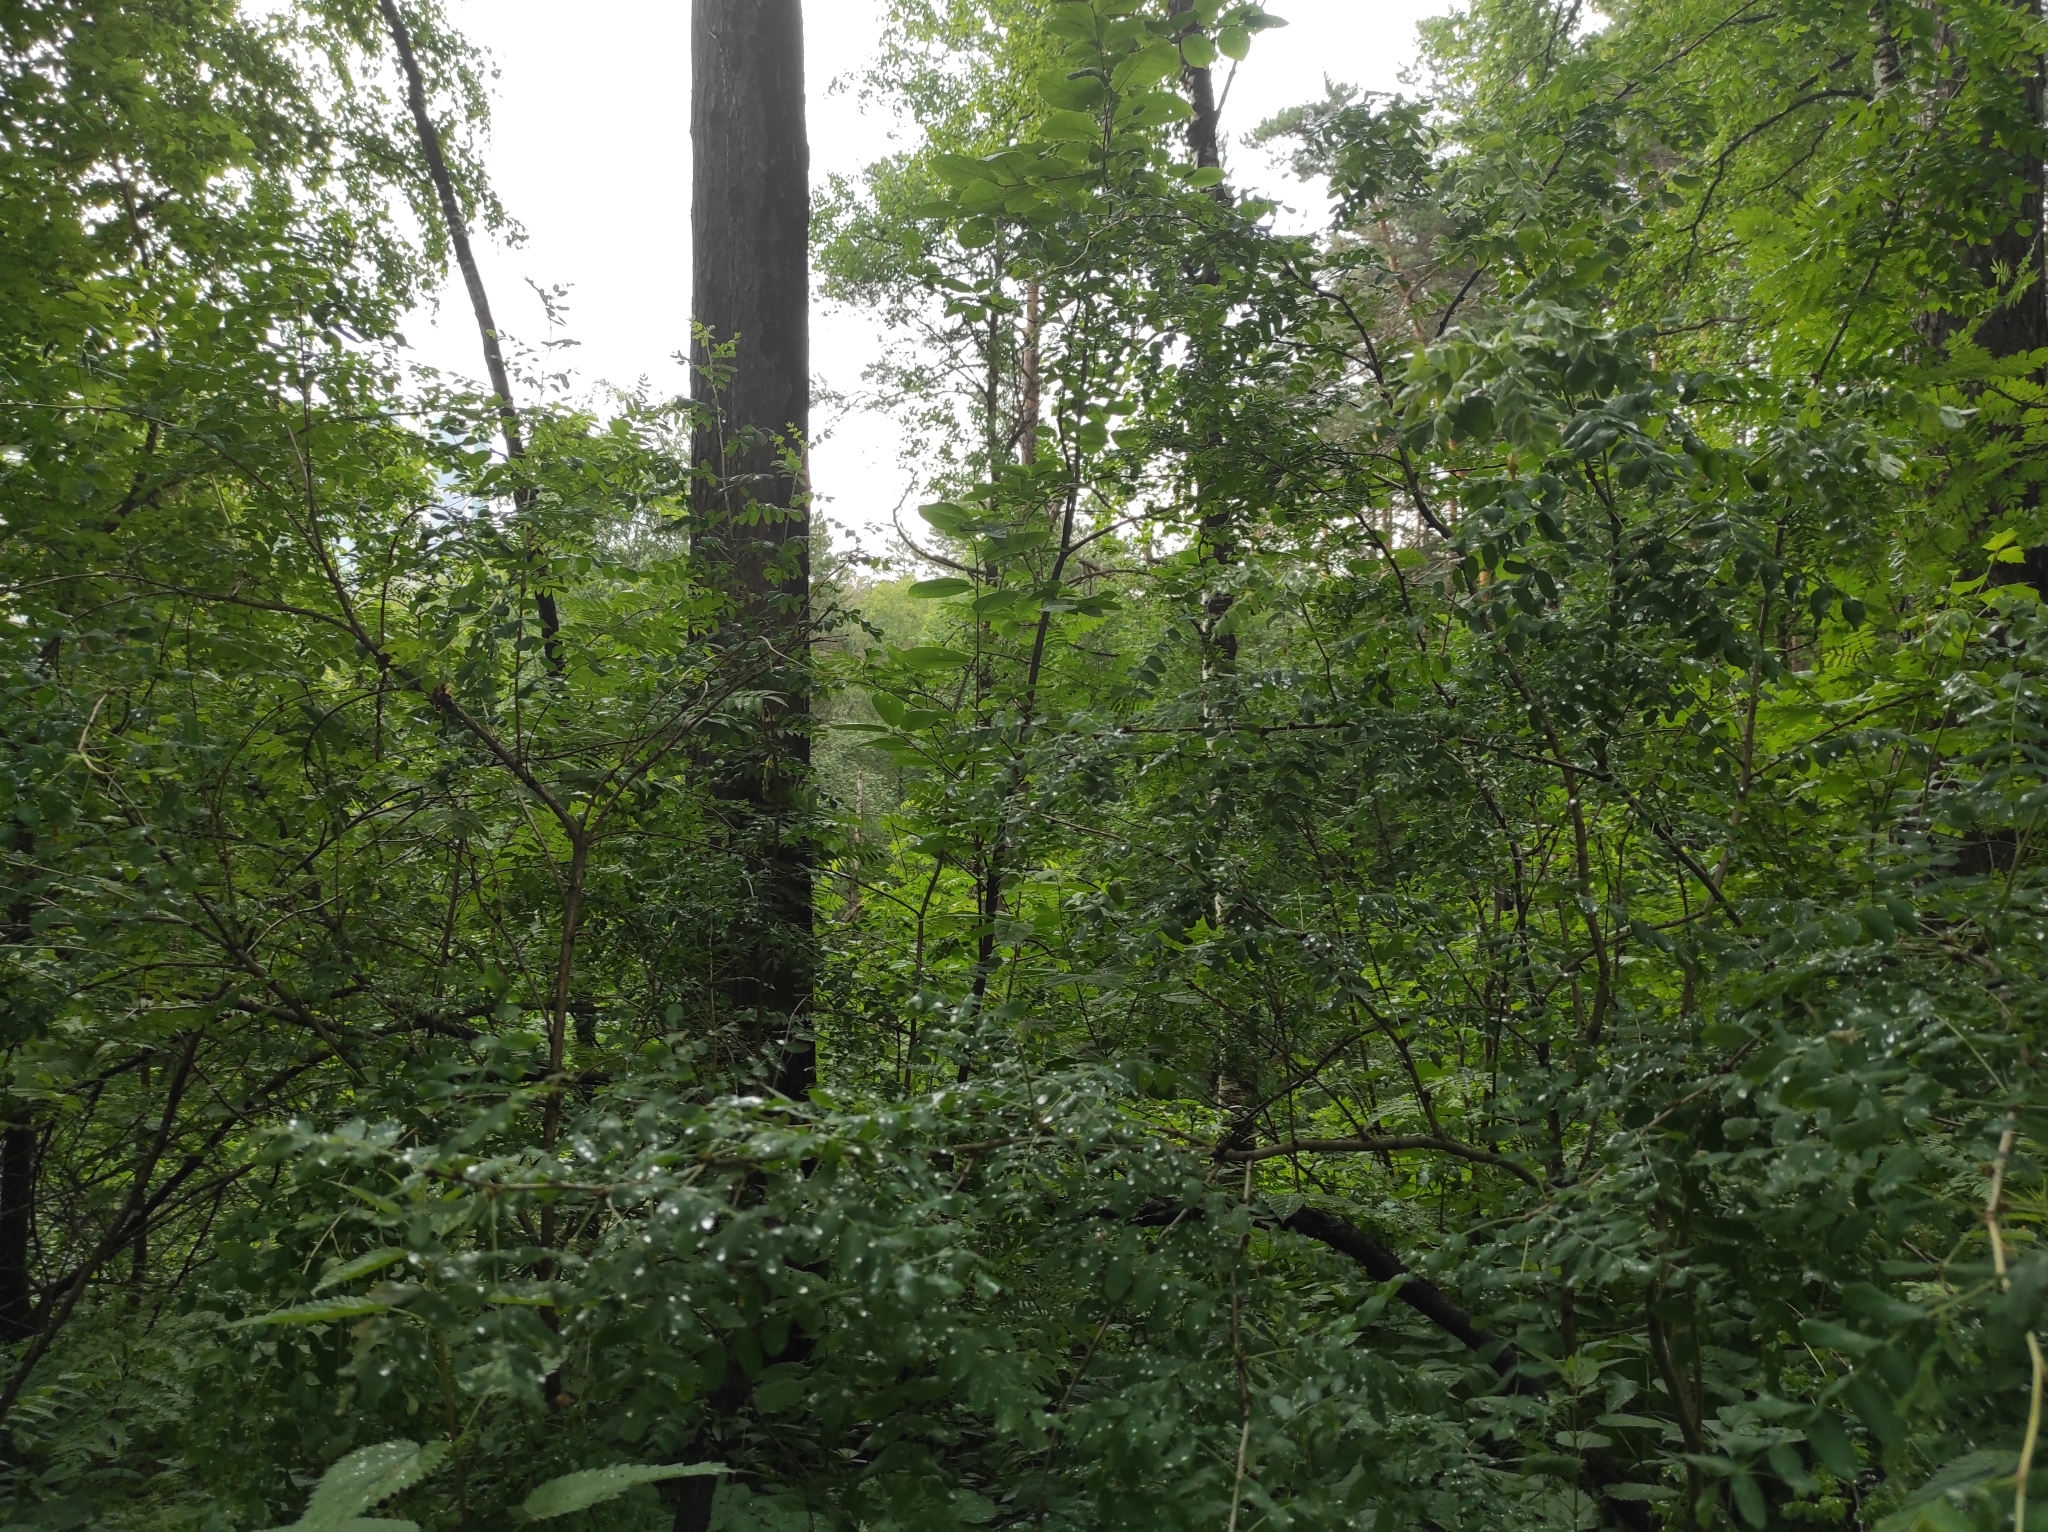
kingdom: Plantae
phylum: Tracheophyta
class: Magnoliopsida
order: Fabales
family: Fabaceae
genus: Caragana
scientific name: Caragana arborescens
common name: Siberian peashrub
